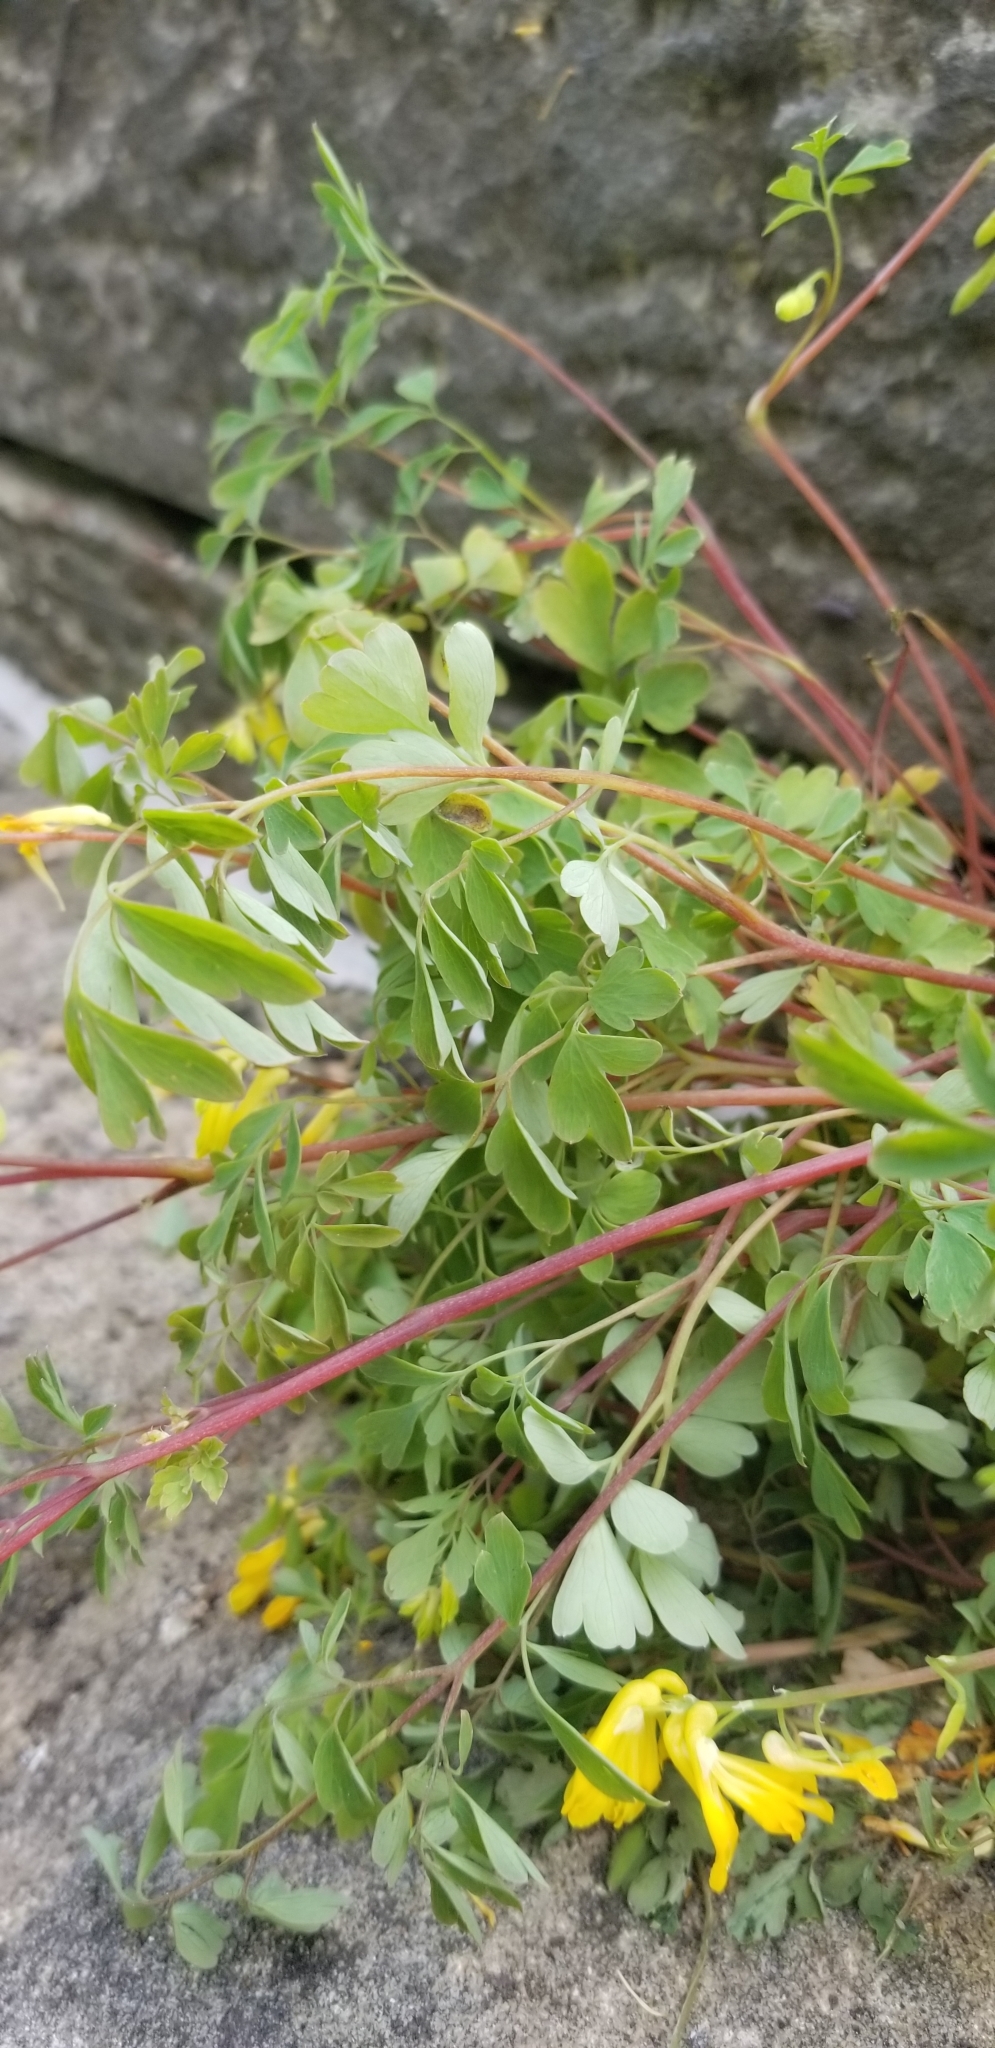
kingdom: Plantae
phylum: Tracheophyta
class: Magnoliopsida
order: Ranunculales
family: Papaveraceae
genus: Pseudofumaria
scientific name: Pseudofumaria lutea
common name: Yellow corydalis
